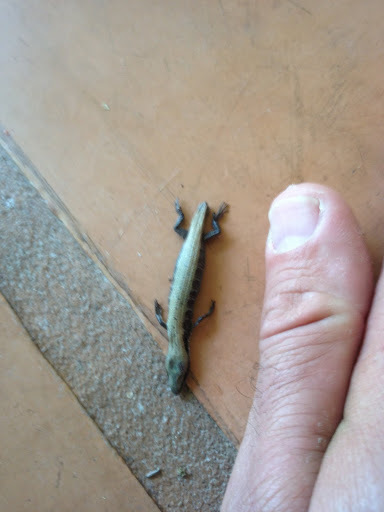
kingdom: Animalia
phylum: Chordata
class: Squamata
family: Anguidae
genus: Elgaria
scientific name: Elgaria multicarinata
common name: Southern alligator lizard
